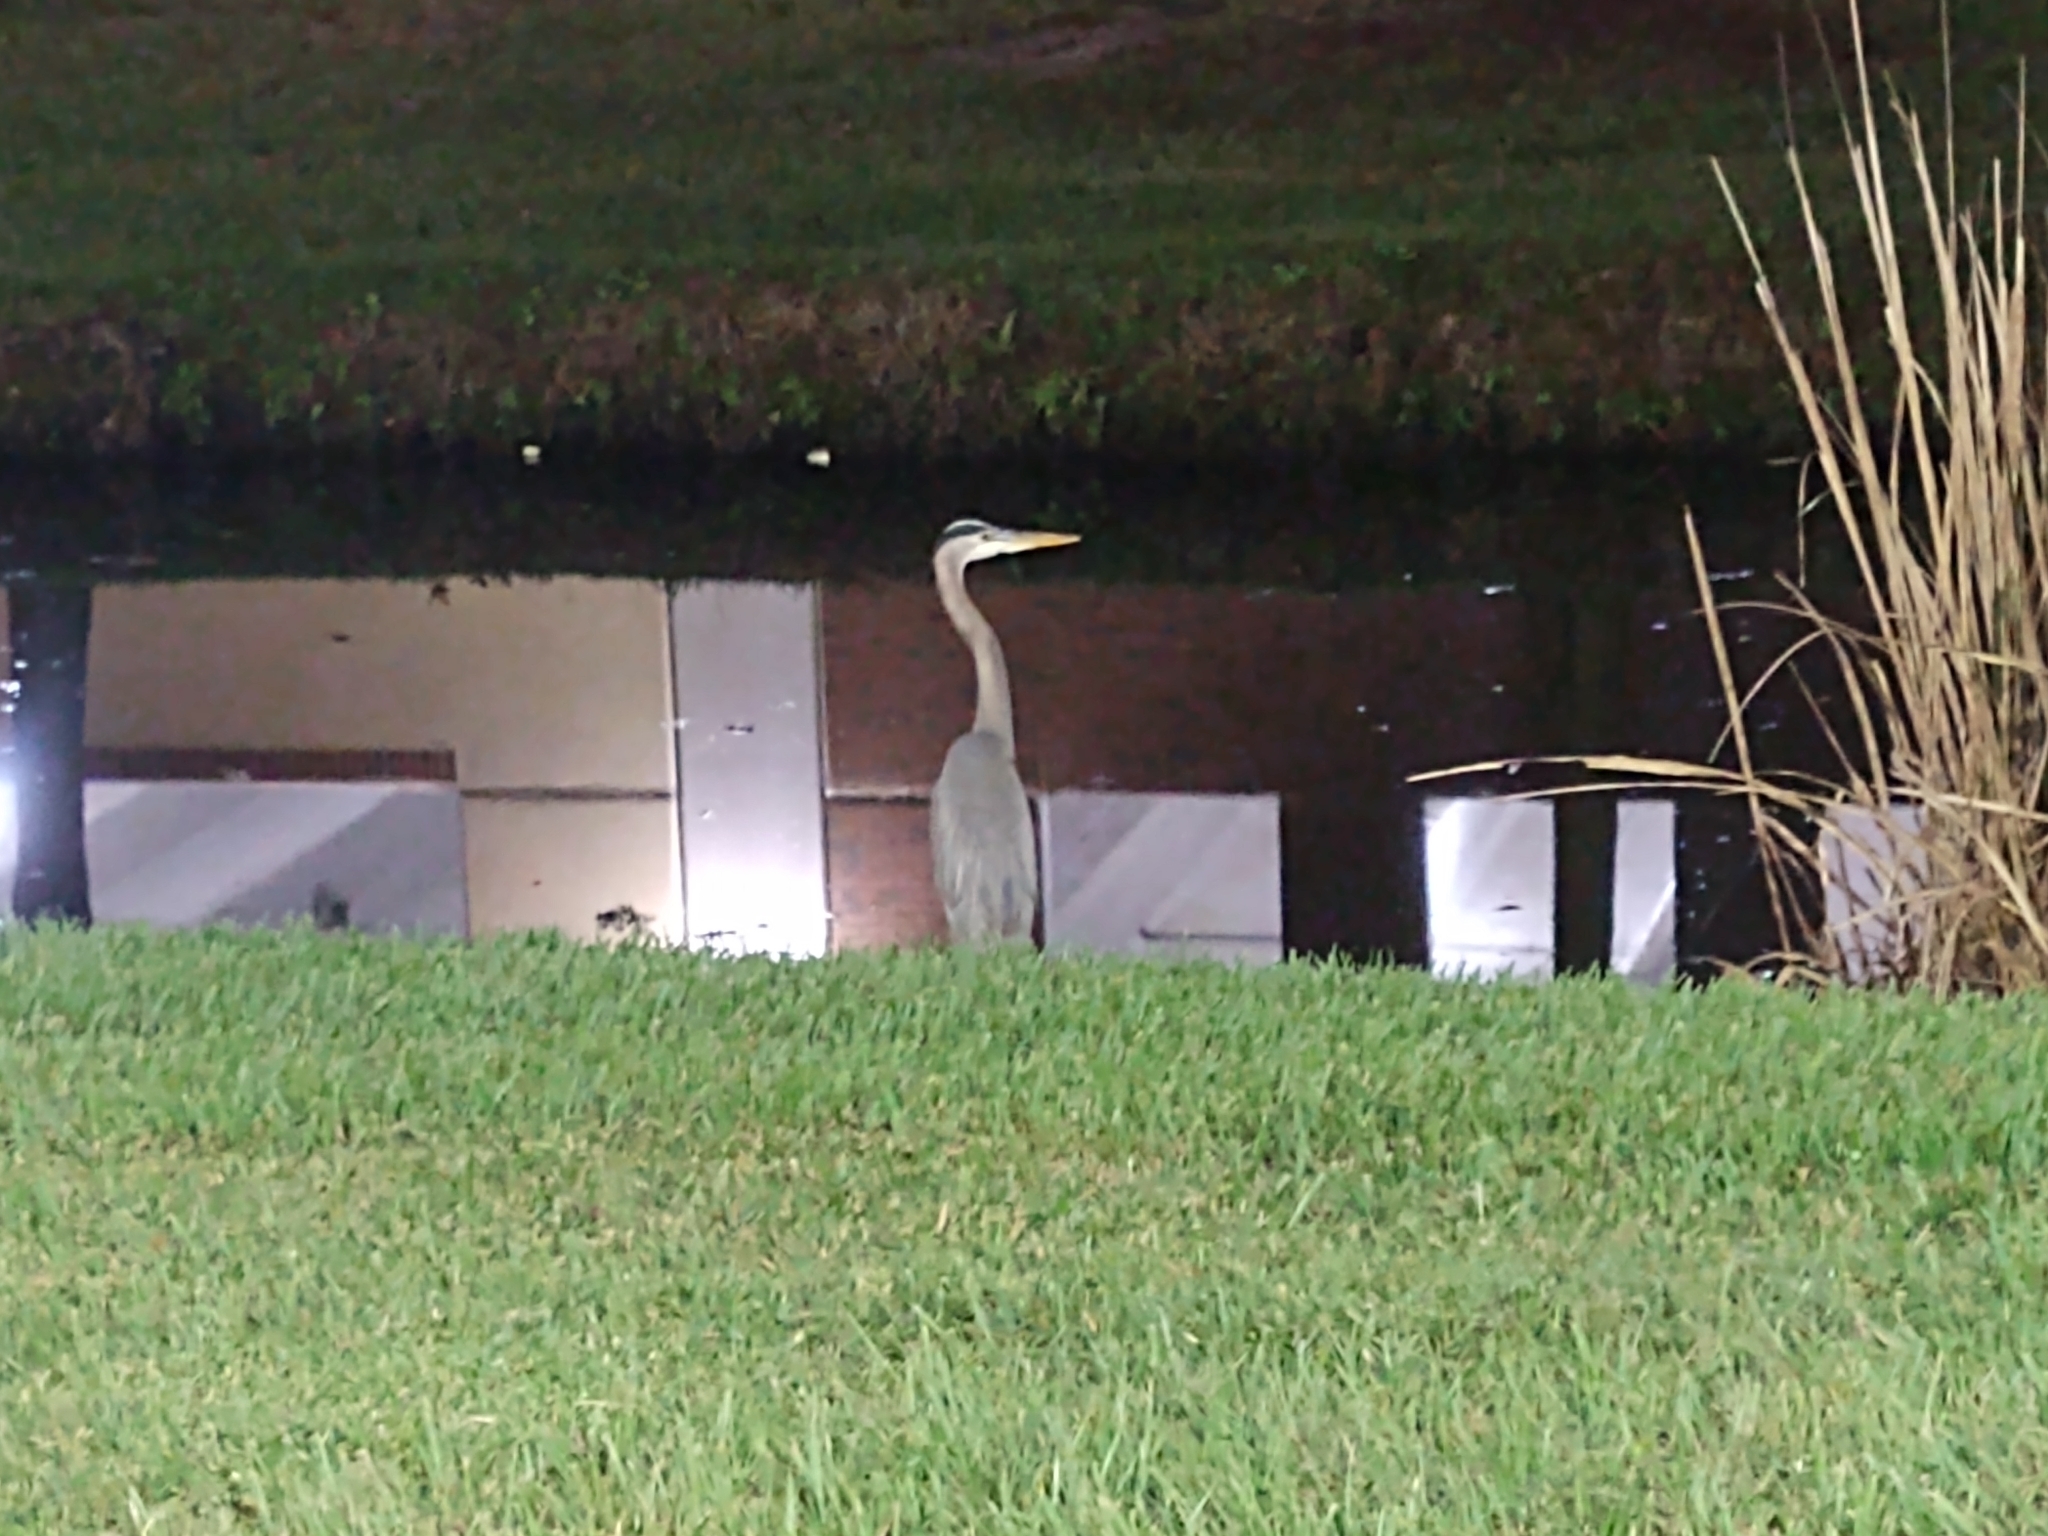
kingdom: Animalia
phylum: Chordata
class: Aves
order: Pelecaniformes
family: Ardeidae
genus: Ardea
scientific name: Ardea herodias
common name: Great blue heron
